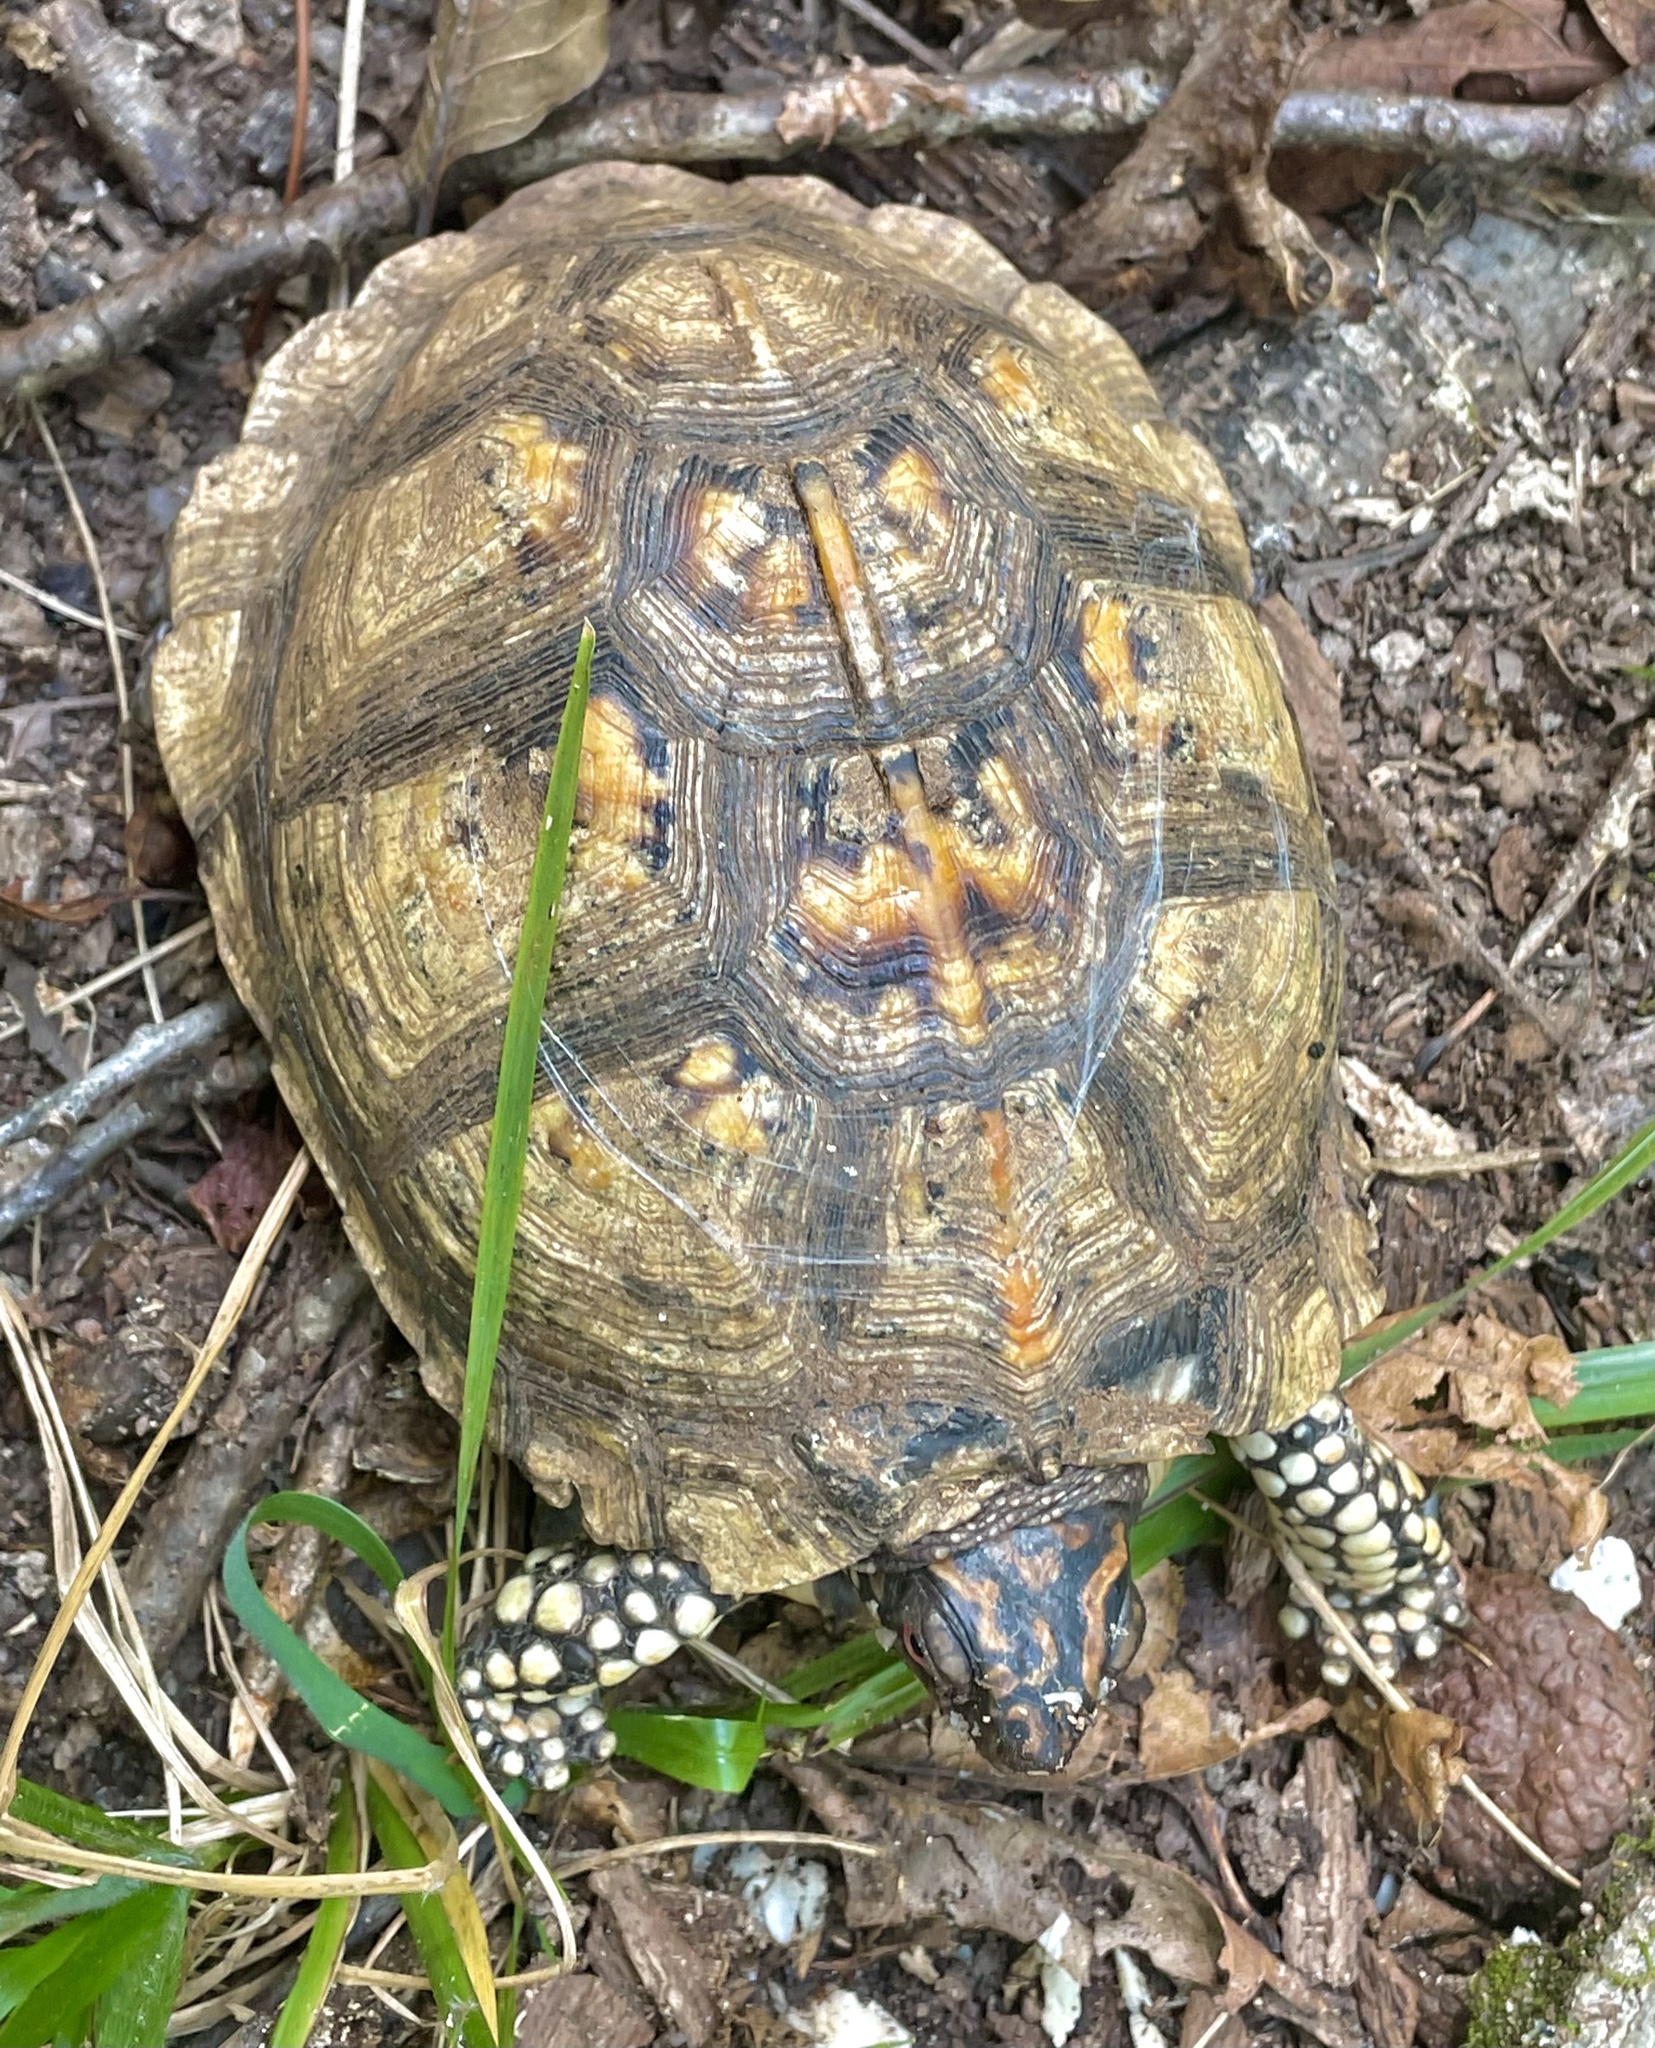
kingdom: Animalia
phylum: Chordata
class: Testudines
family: Emydidae
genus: Terrapene
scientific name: Terrapene carolina
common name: Common box turtle
